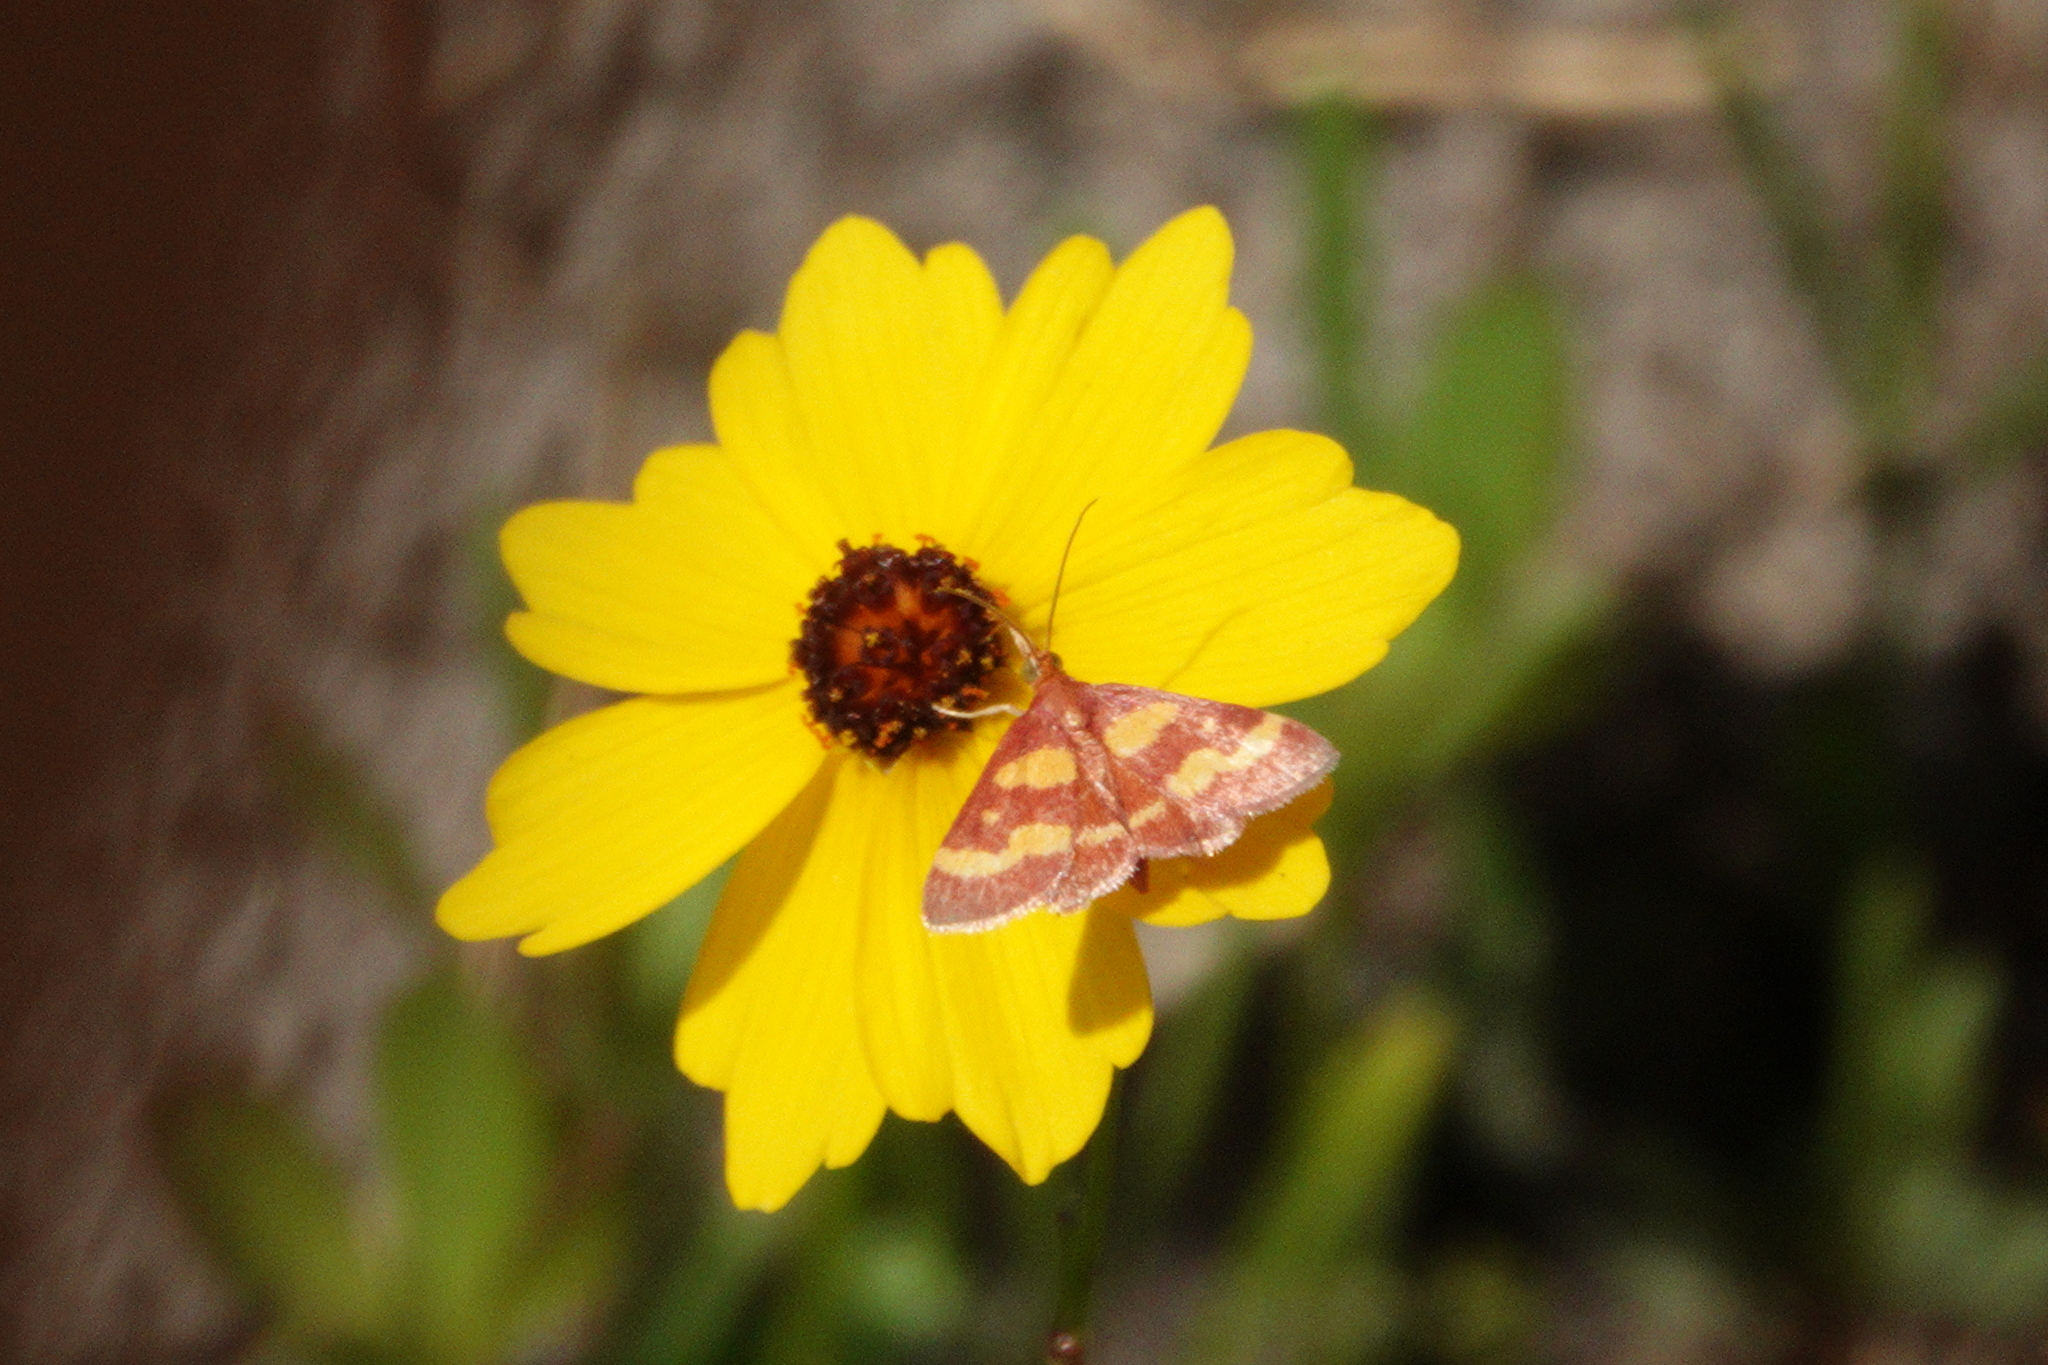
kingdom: Animalia
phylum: Arthropoda
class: Insecta
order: Lepidoptera
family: Crambidae
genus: Pyrausta
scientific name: Pyrausta tyralis
